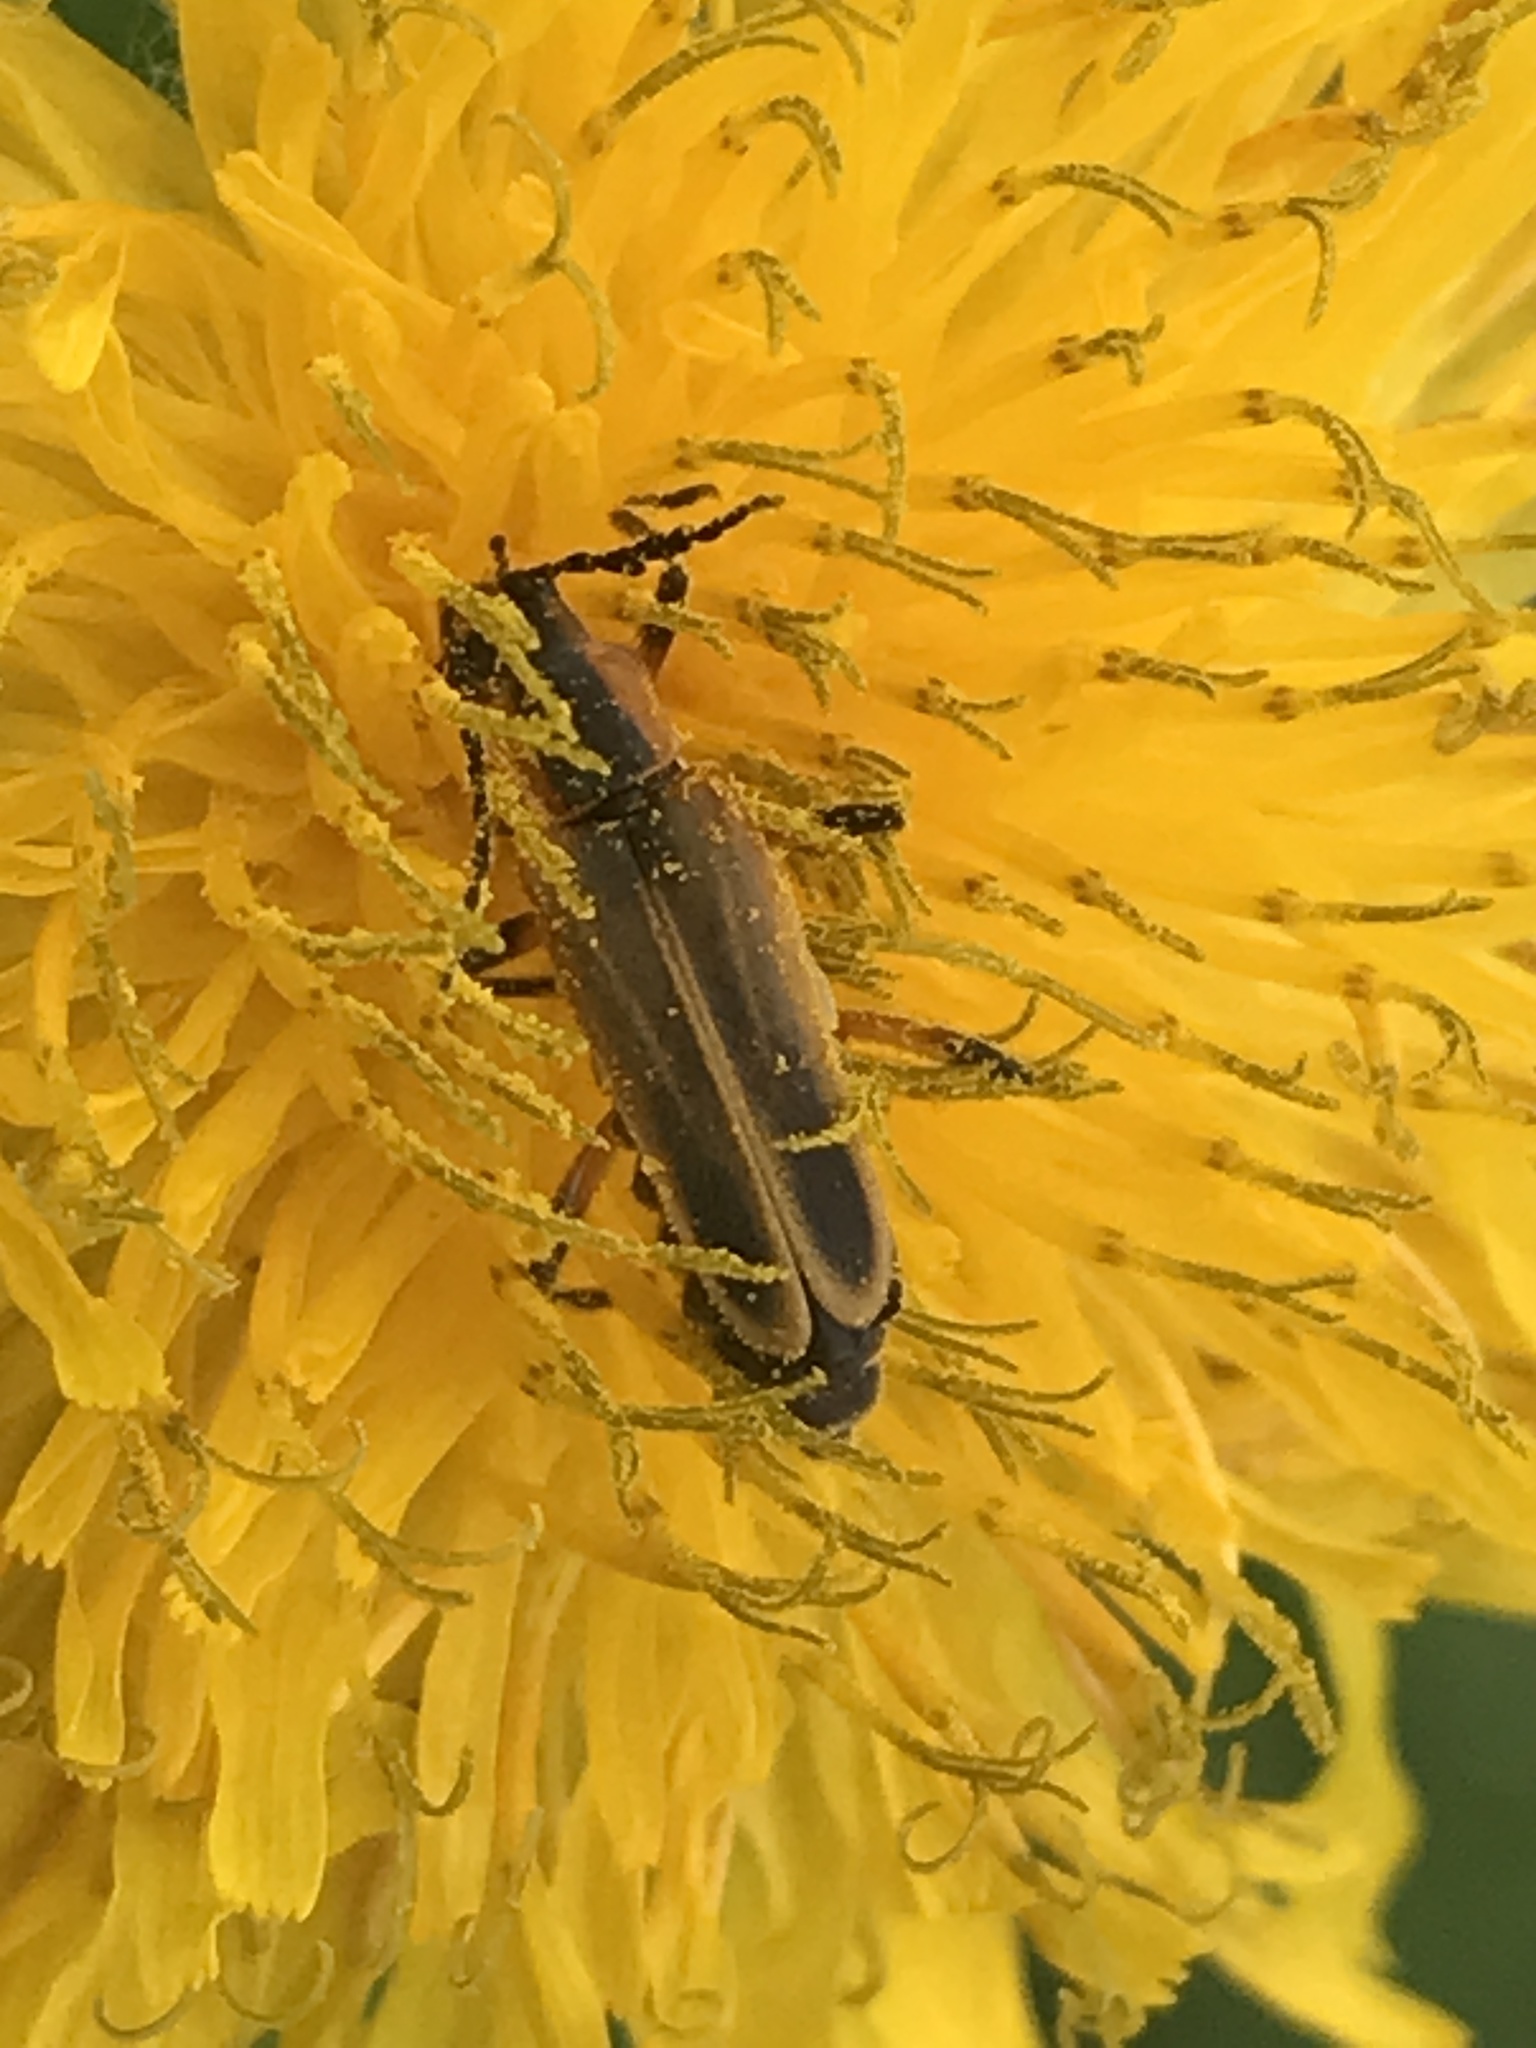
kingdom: Animalia
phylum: Arthropoda
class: Insecta
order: Coleoptera
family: Cantharidae
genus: Chauliognathus
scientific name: Chauliognathus marginatus
